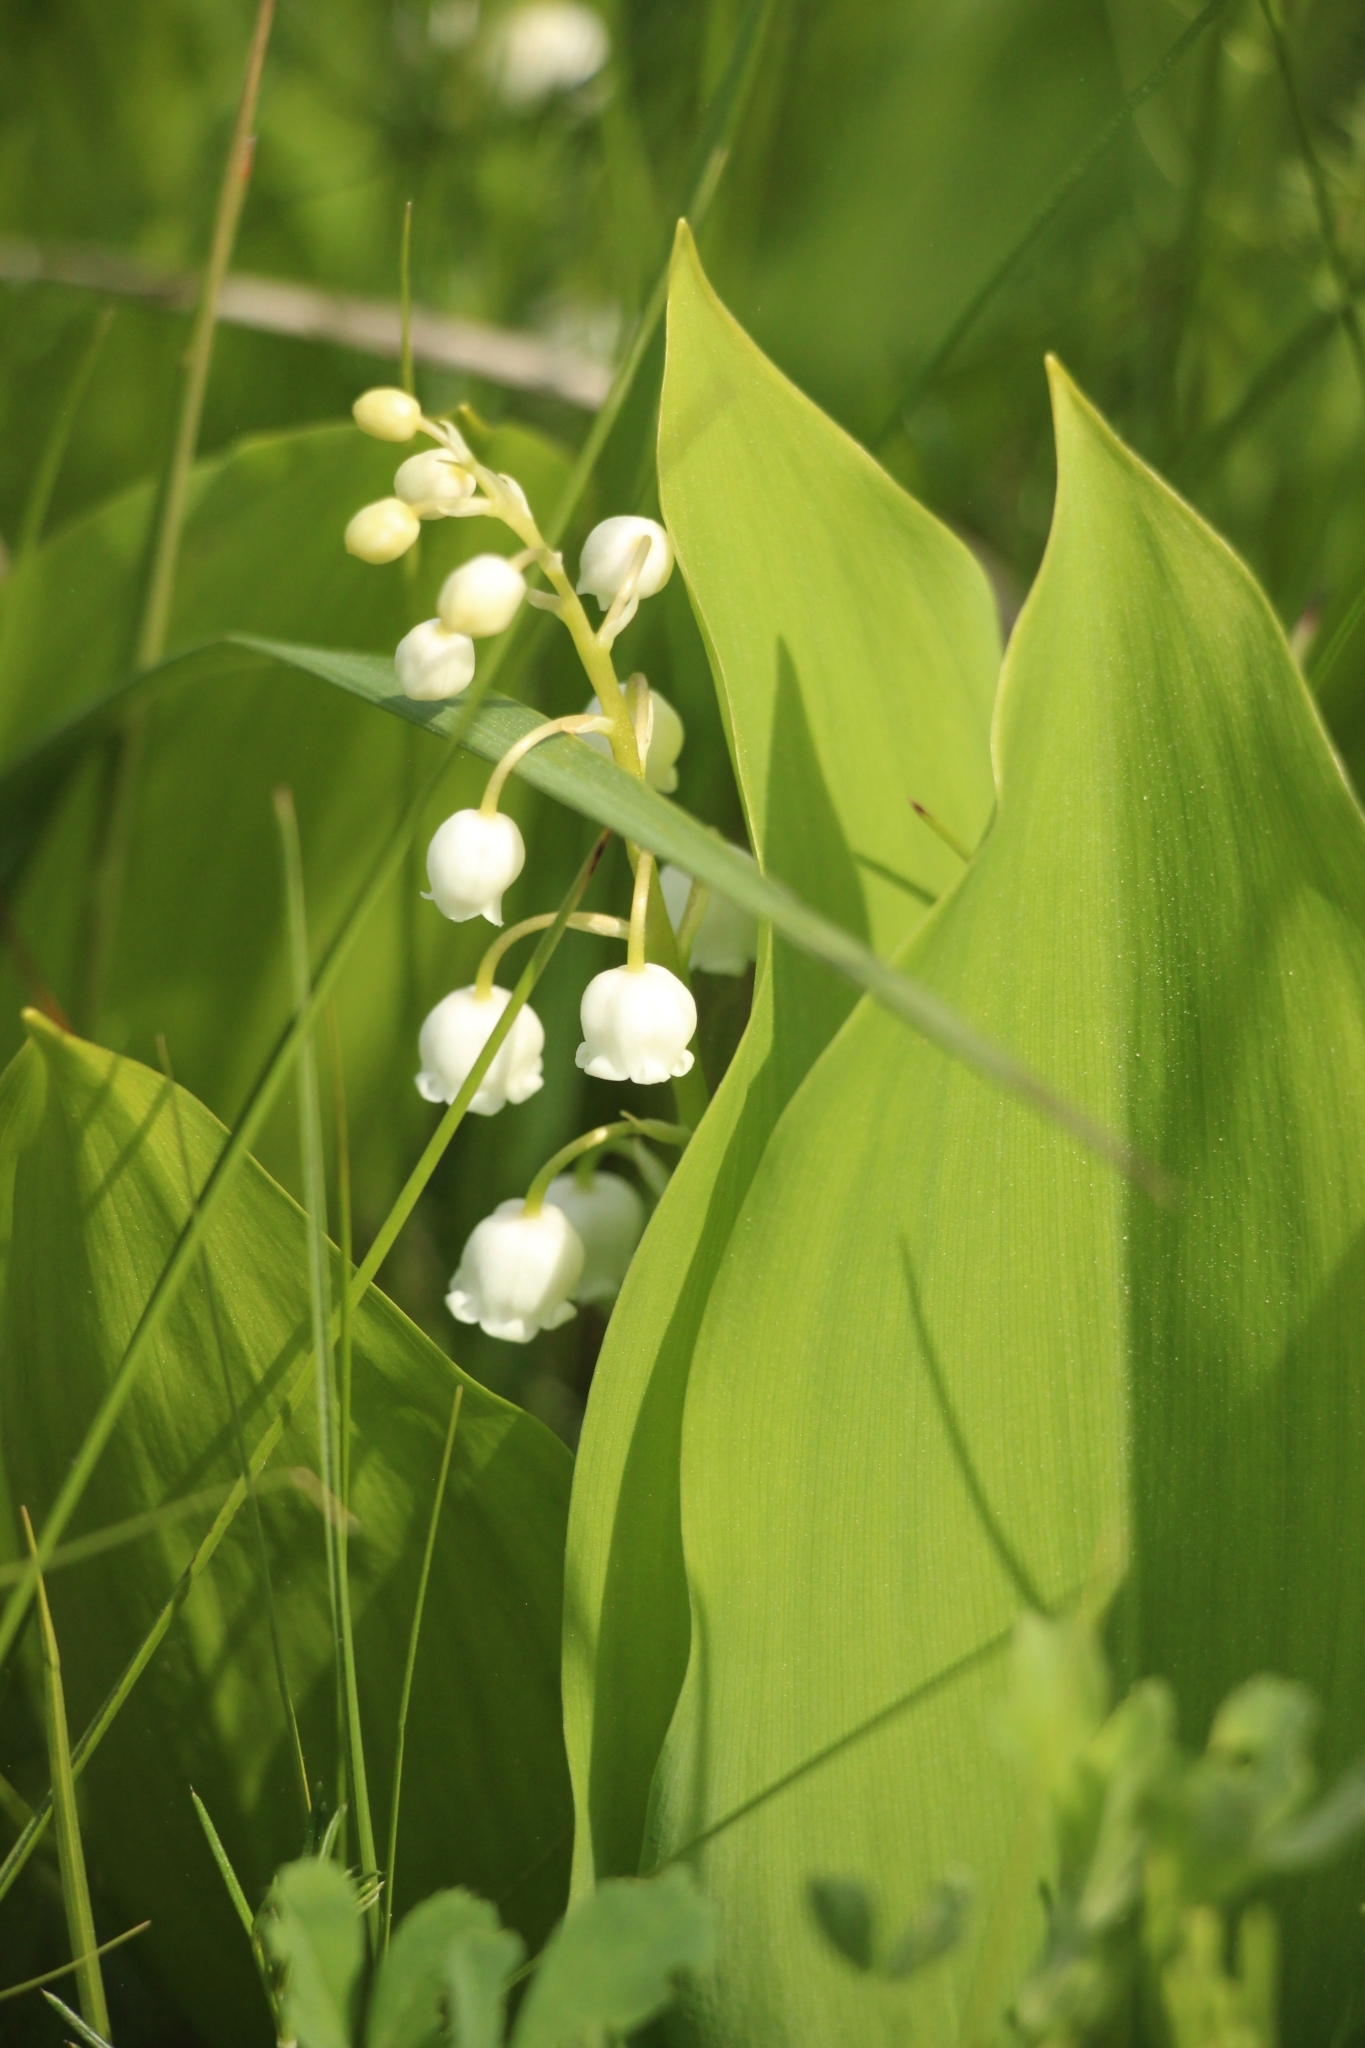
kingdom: Plantae
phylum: Tracheophyta
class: Liliopsida
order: Asparagales
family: Asparagaceae
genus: Convallaria
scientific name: Convallaria majalis
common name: Lily-of-the-valley
